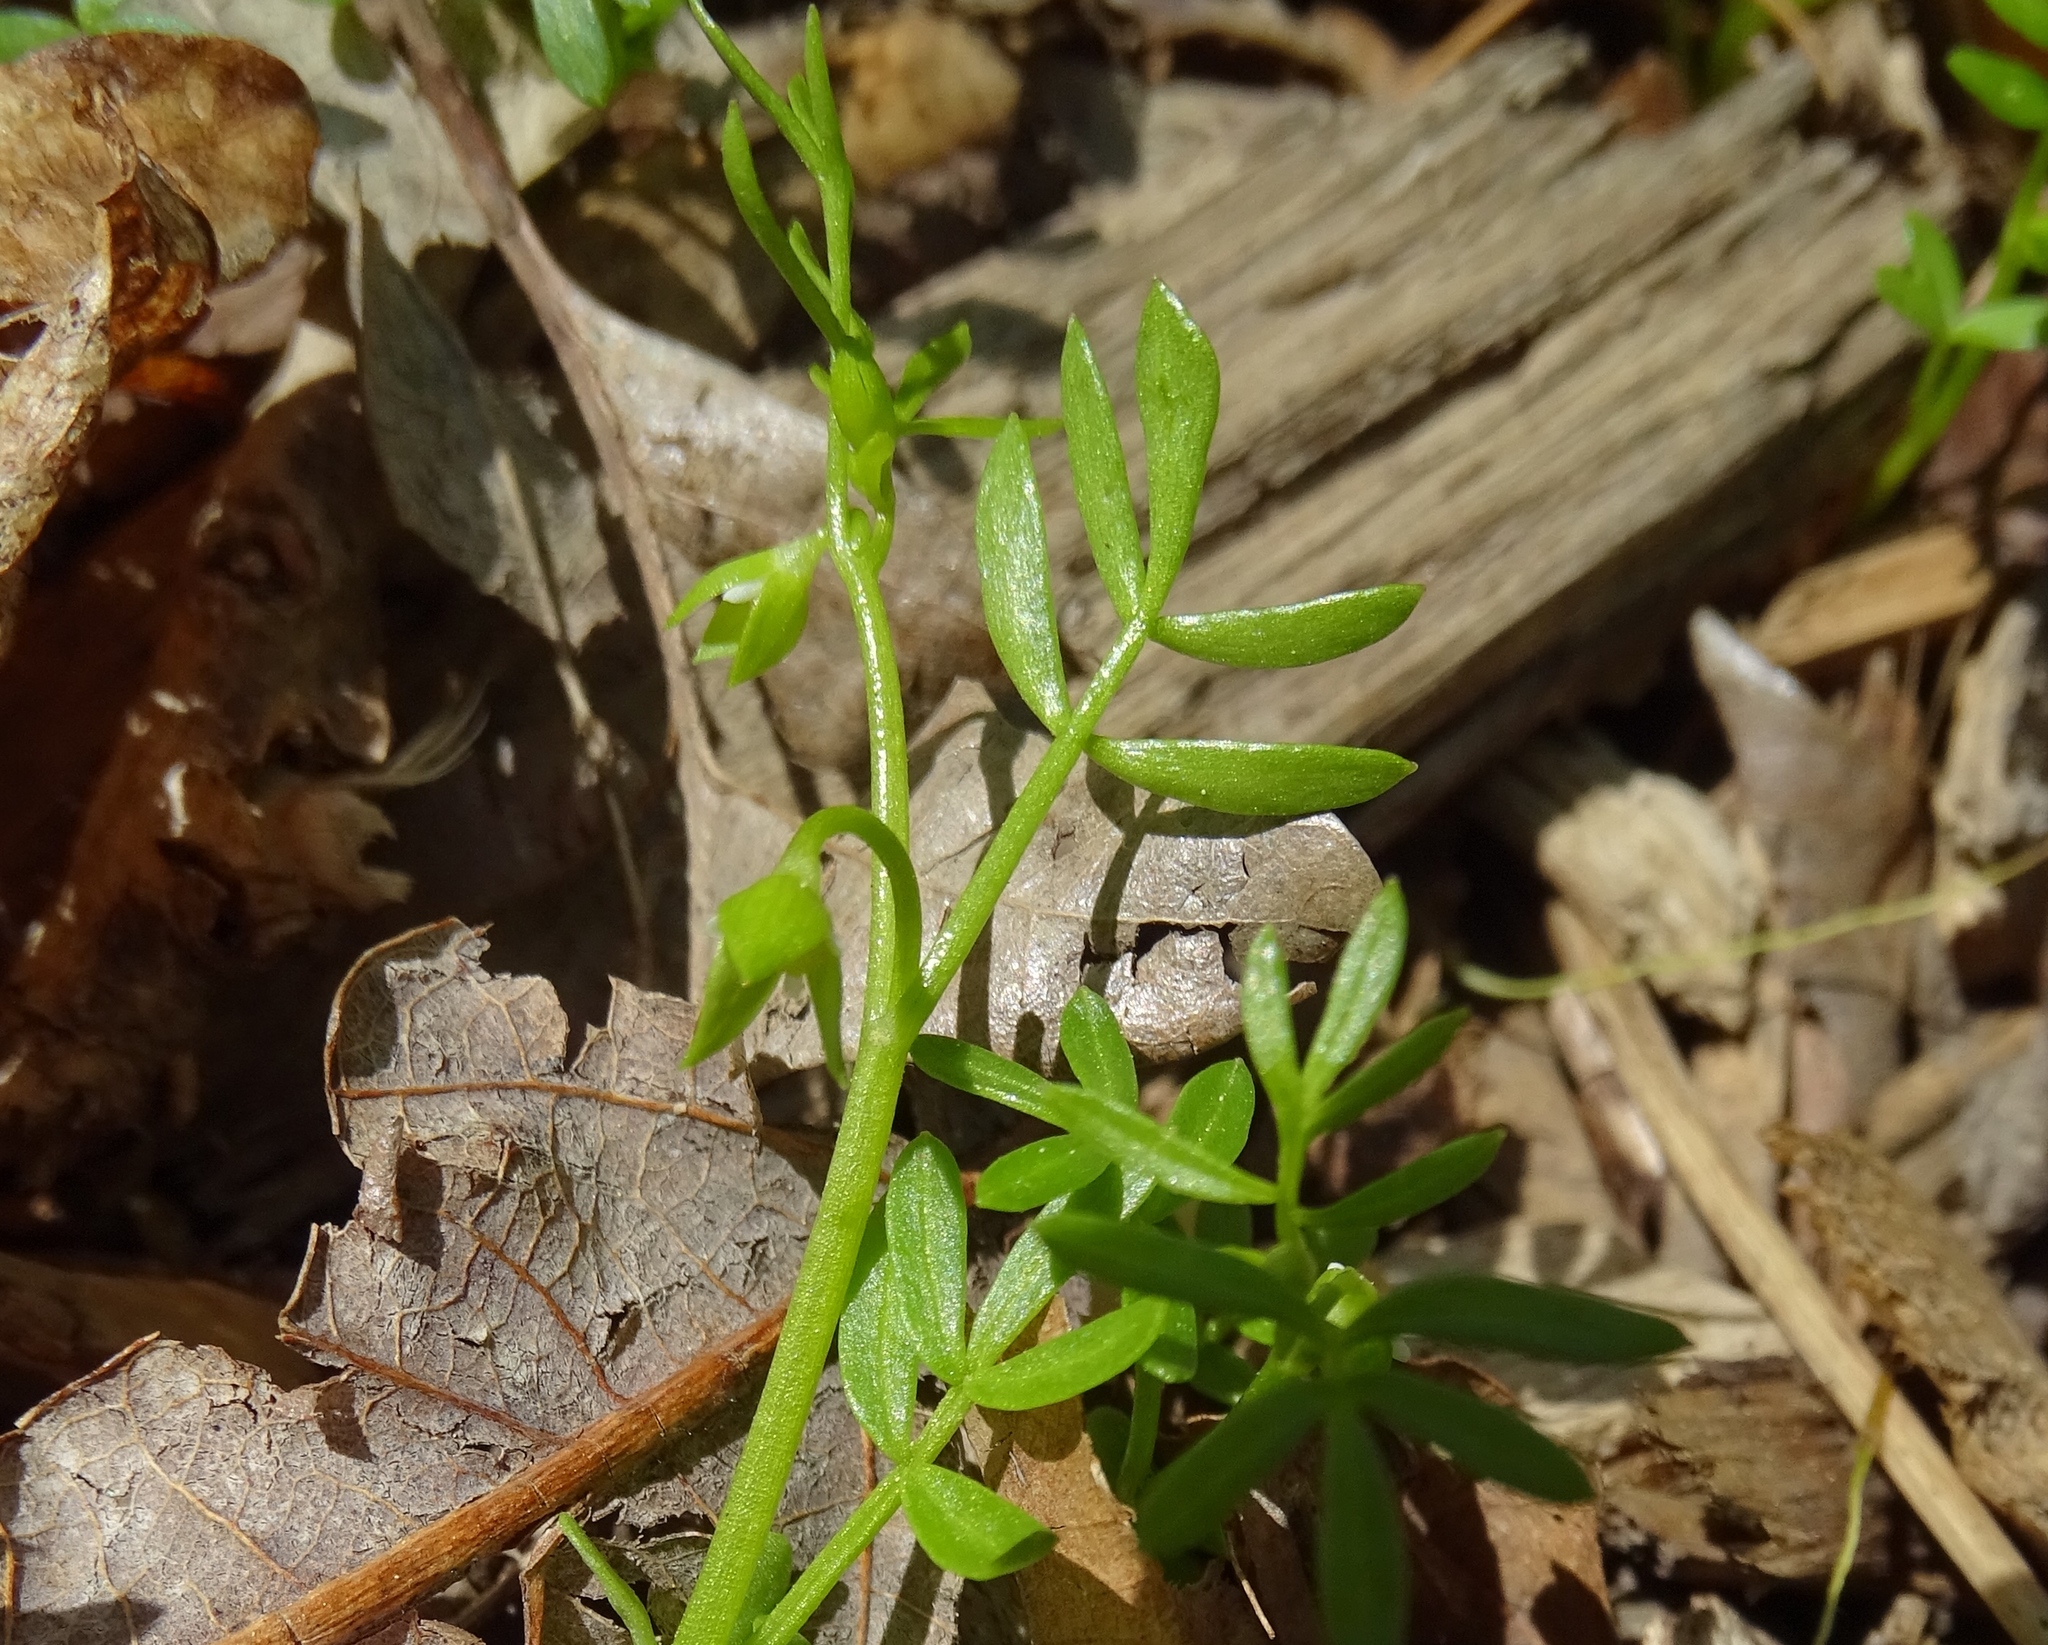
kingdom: Plantae
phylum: Tracheophyta
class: Magnoliopsida
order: Brassicales
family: Limnanthaceae
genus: Floerkea
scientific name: Floerkea proserpinacoides
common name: False mermaid
